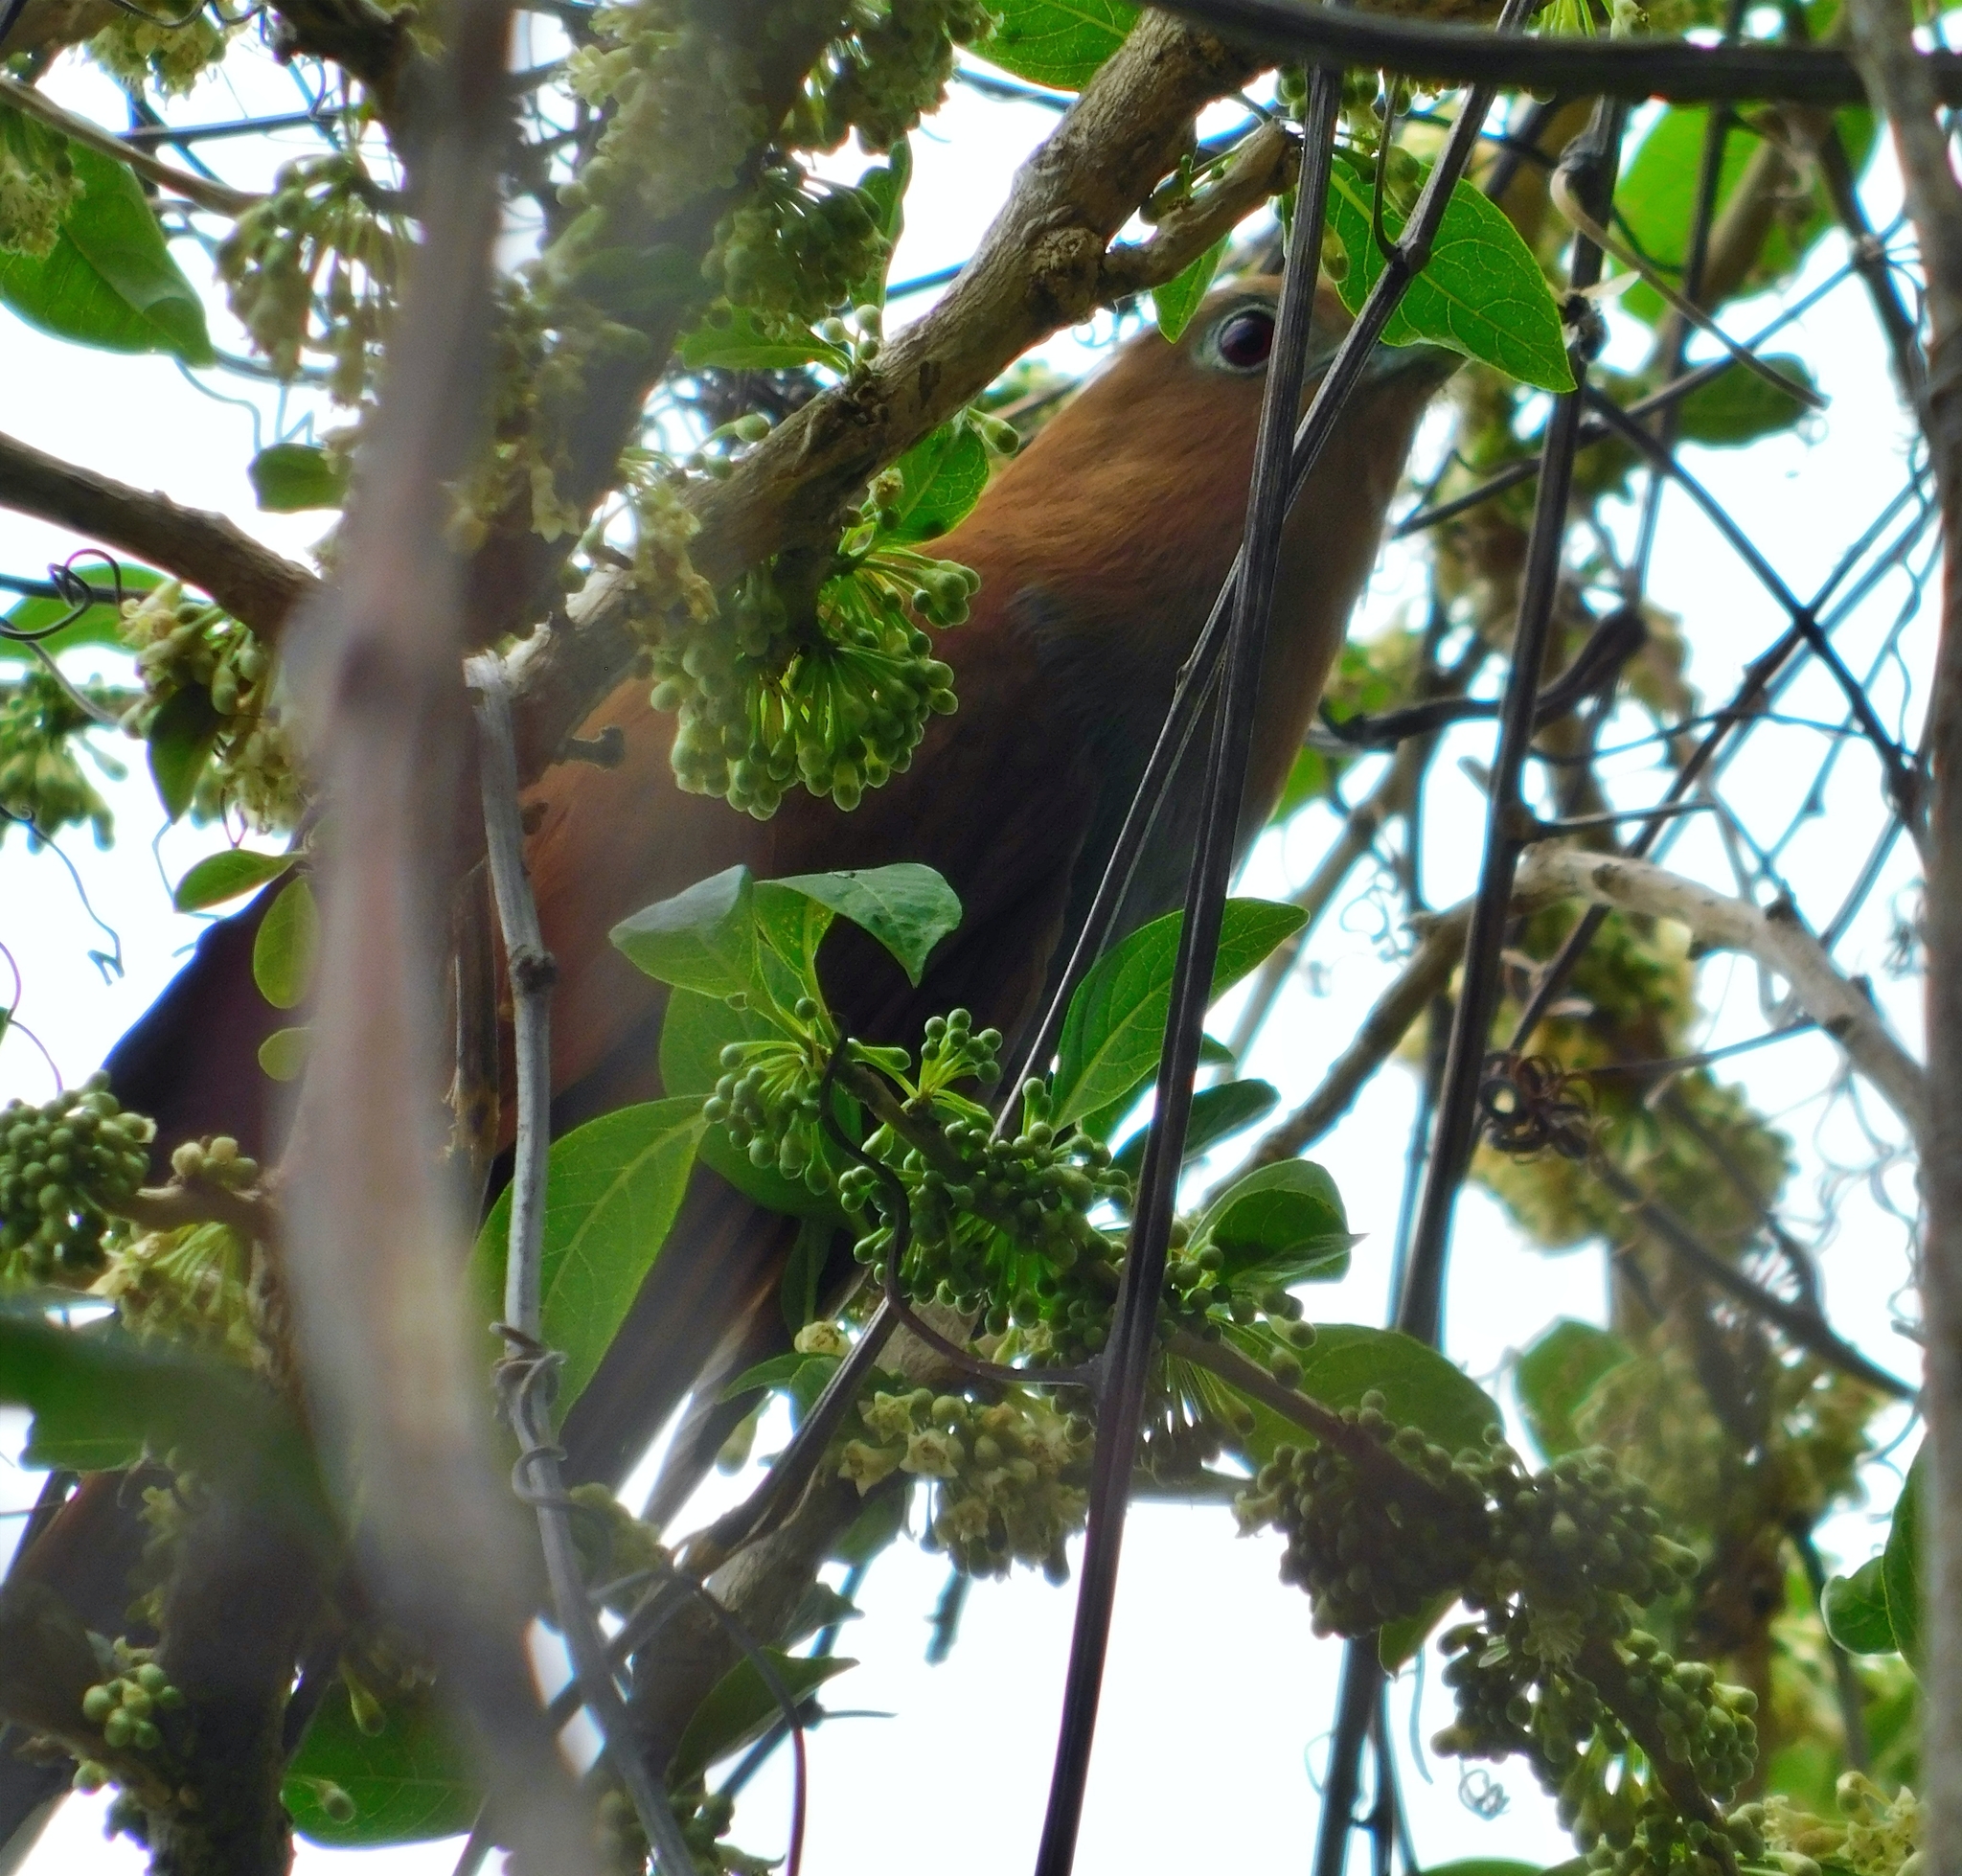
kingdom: Animalia
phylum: Chordata
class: Aves
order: Cuculiformes
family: Cuculidae
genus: Piaya
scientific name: Piaya cayana
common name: Squirrel cuckoo
